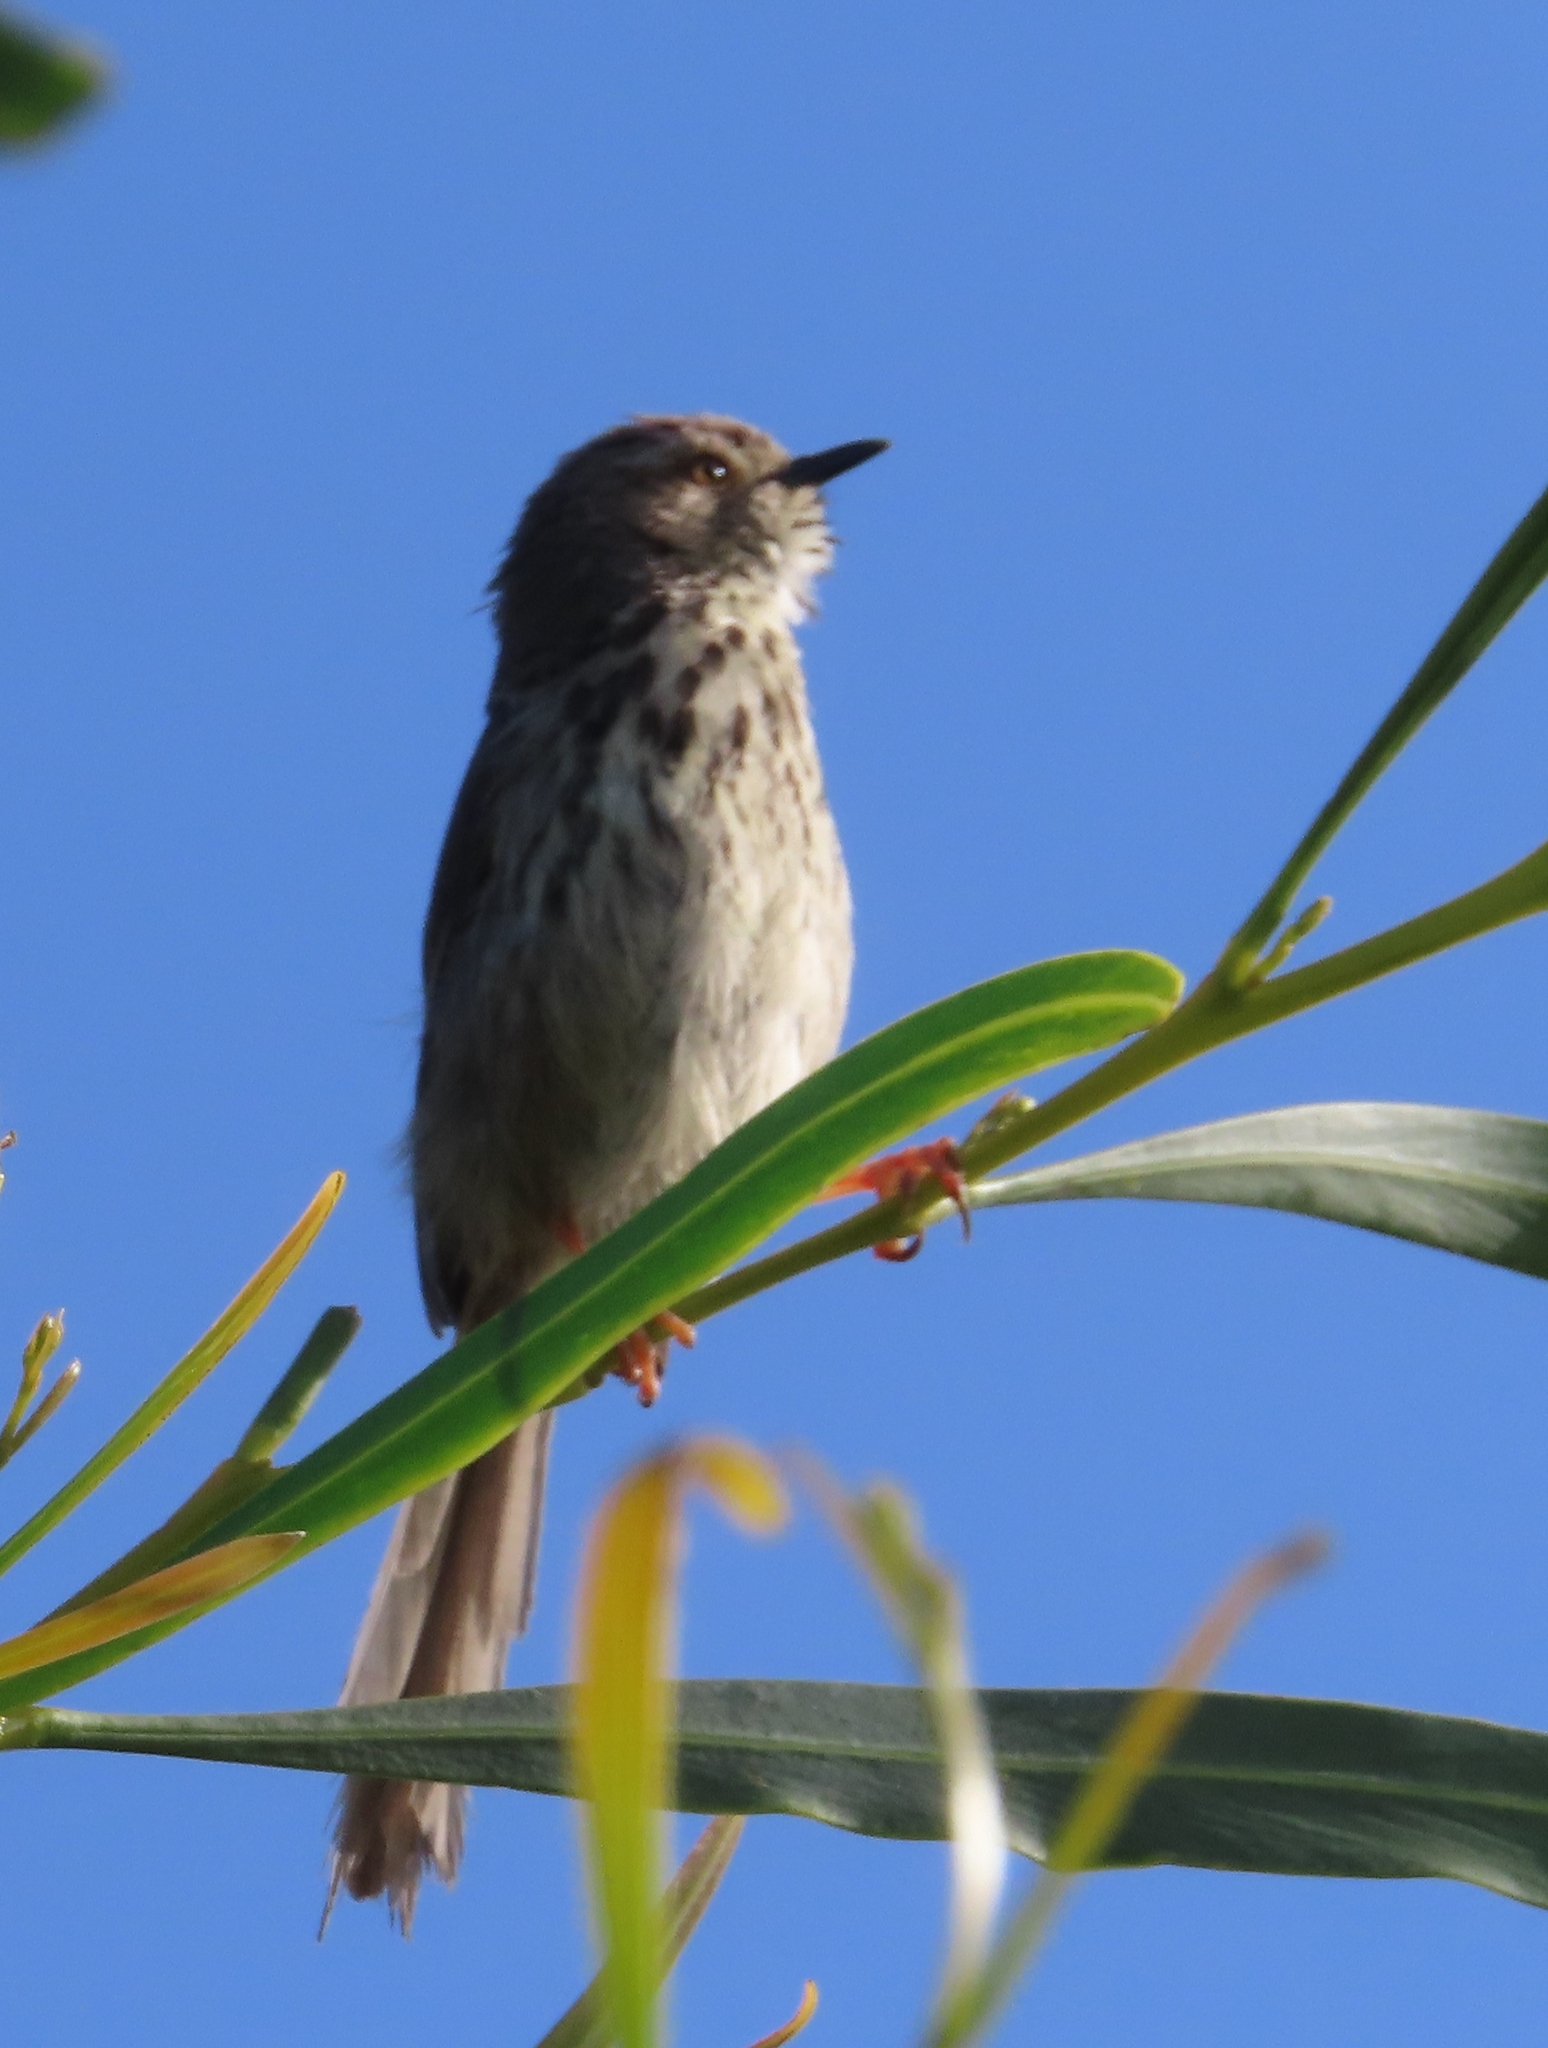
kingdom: Animalia
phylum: Chordata
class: Aves
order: Passeriformes
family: Cisticolidae
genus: Prinia
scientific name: Prinia maculosa
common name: Karoo prinia
